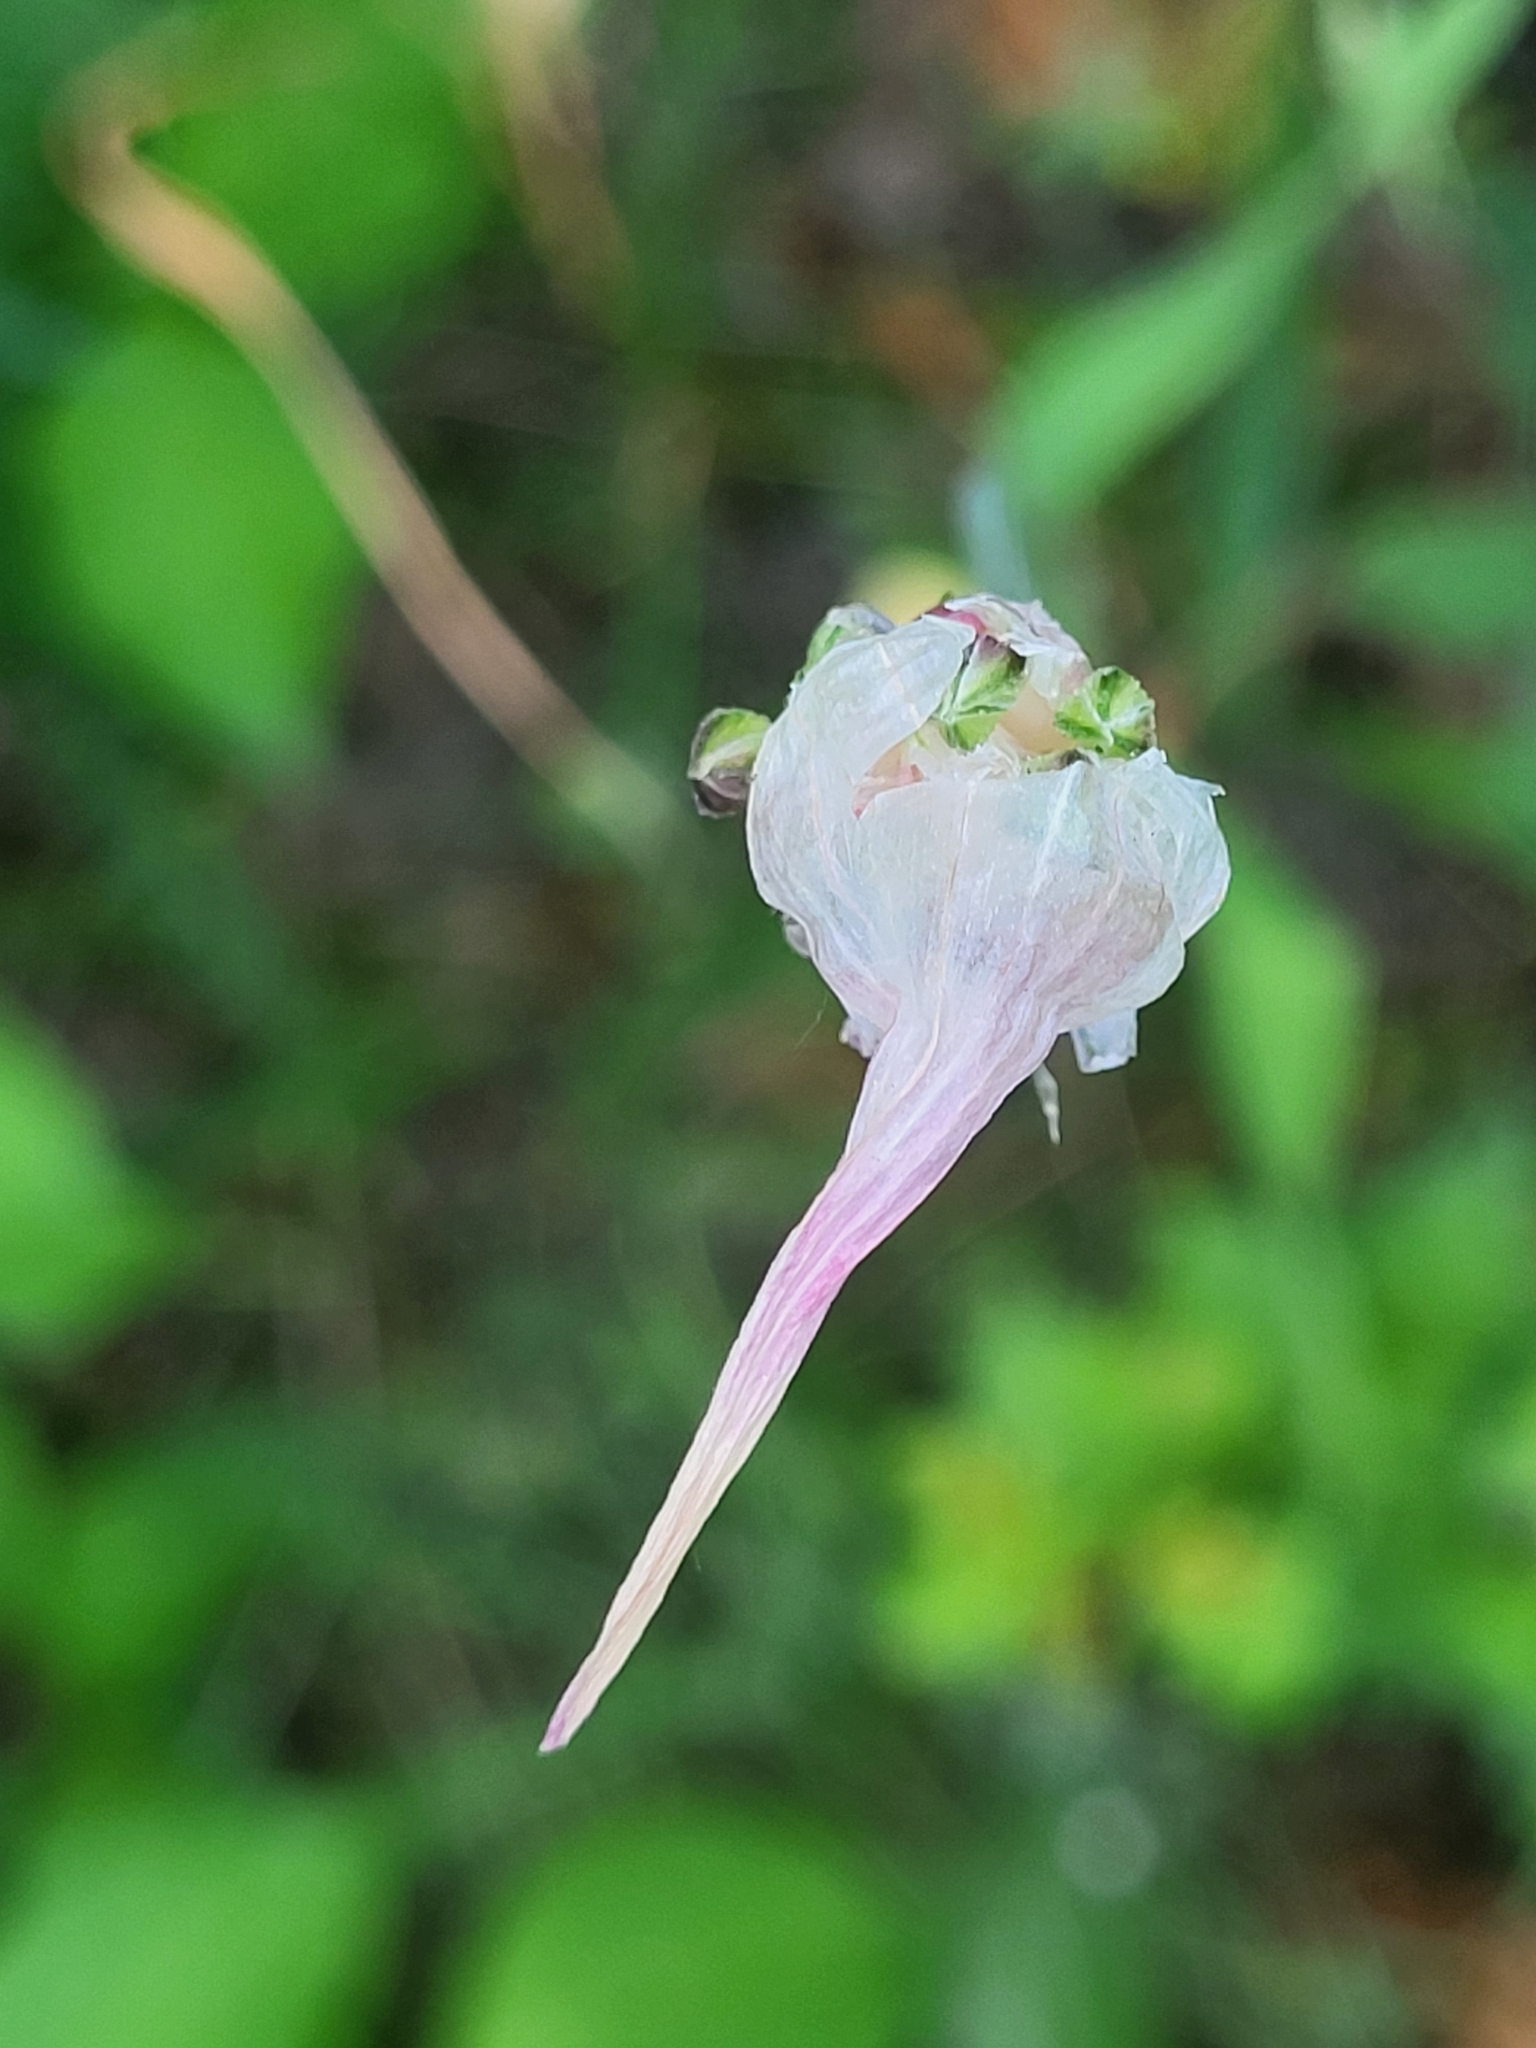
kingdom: Plantae
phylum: Tracheophyta
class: Liliopsida
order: Asparagales
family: Amaryllidaceae
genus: Allium
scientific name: Allium scorodoprasum
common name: Sand leek
